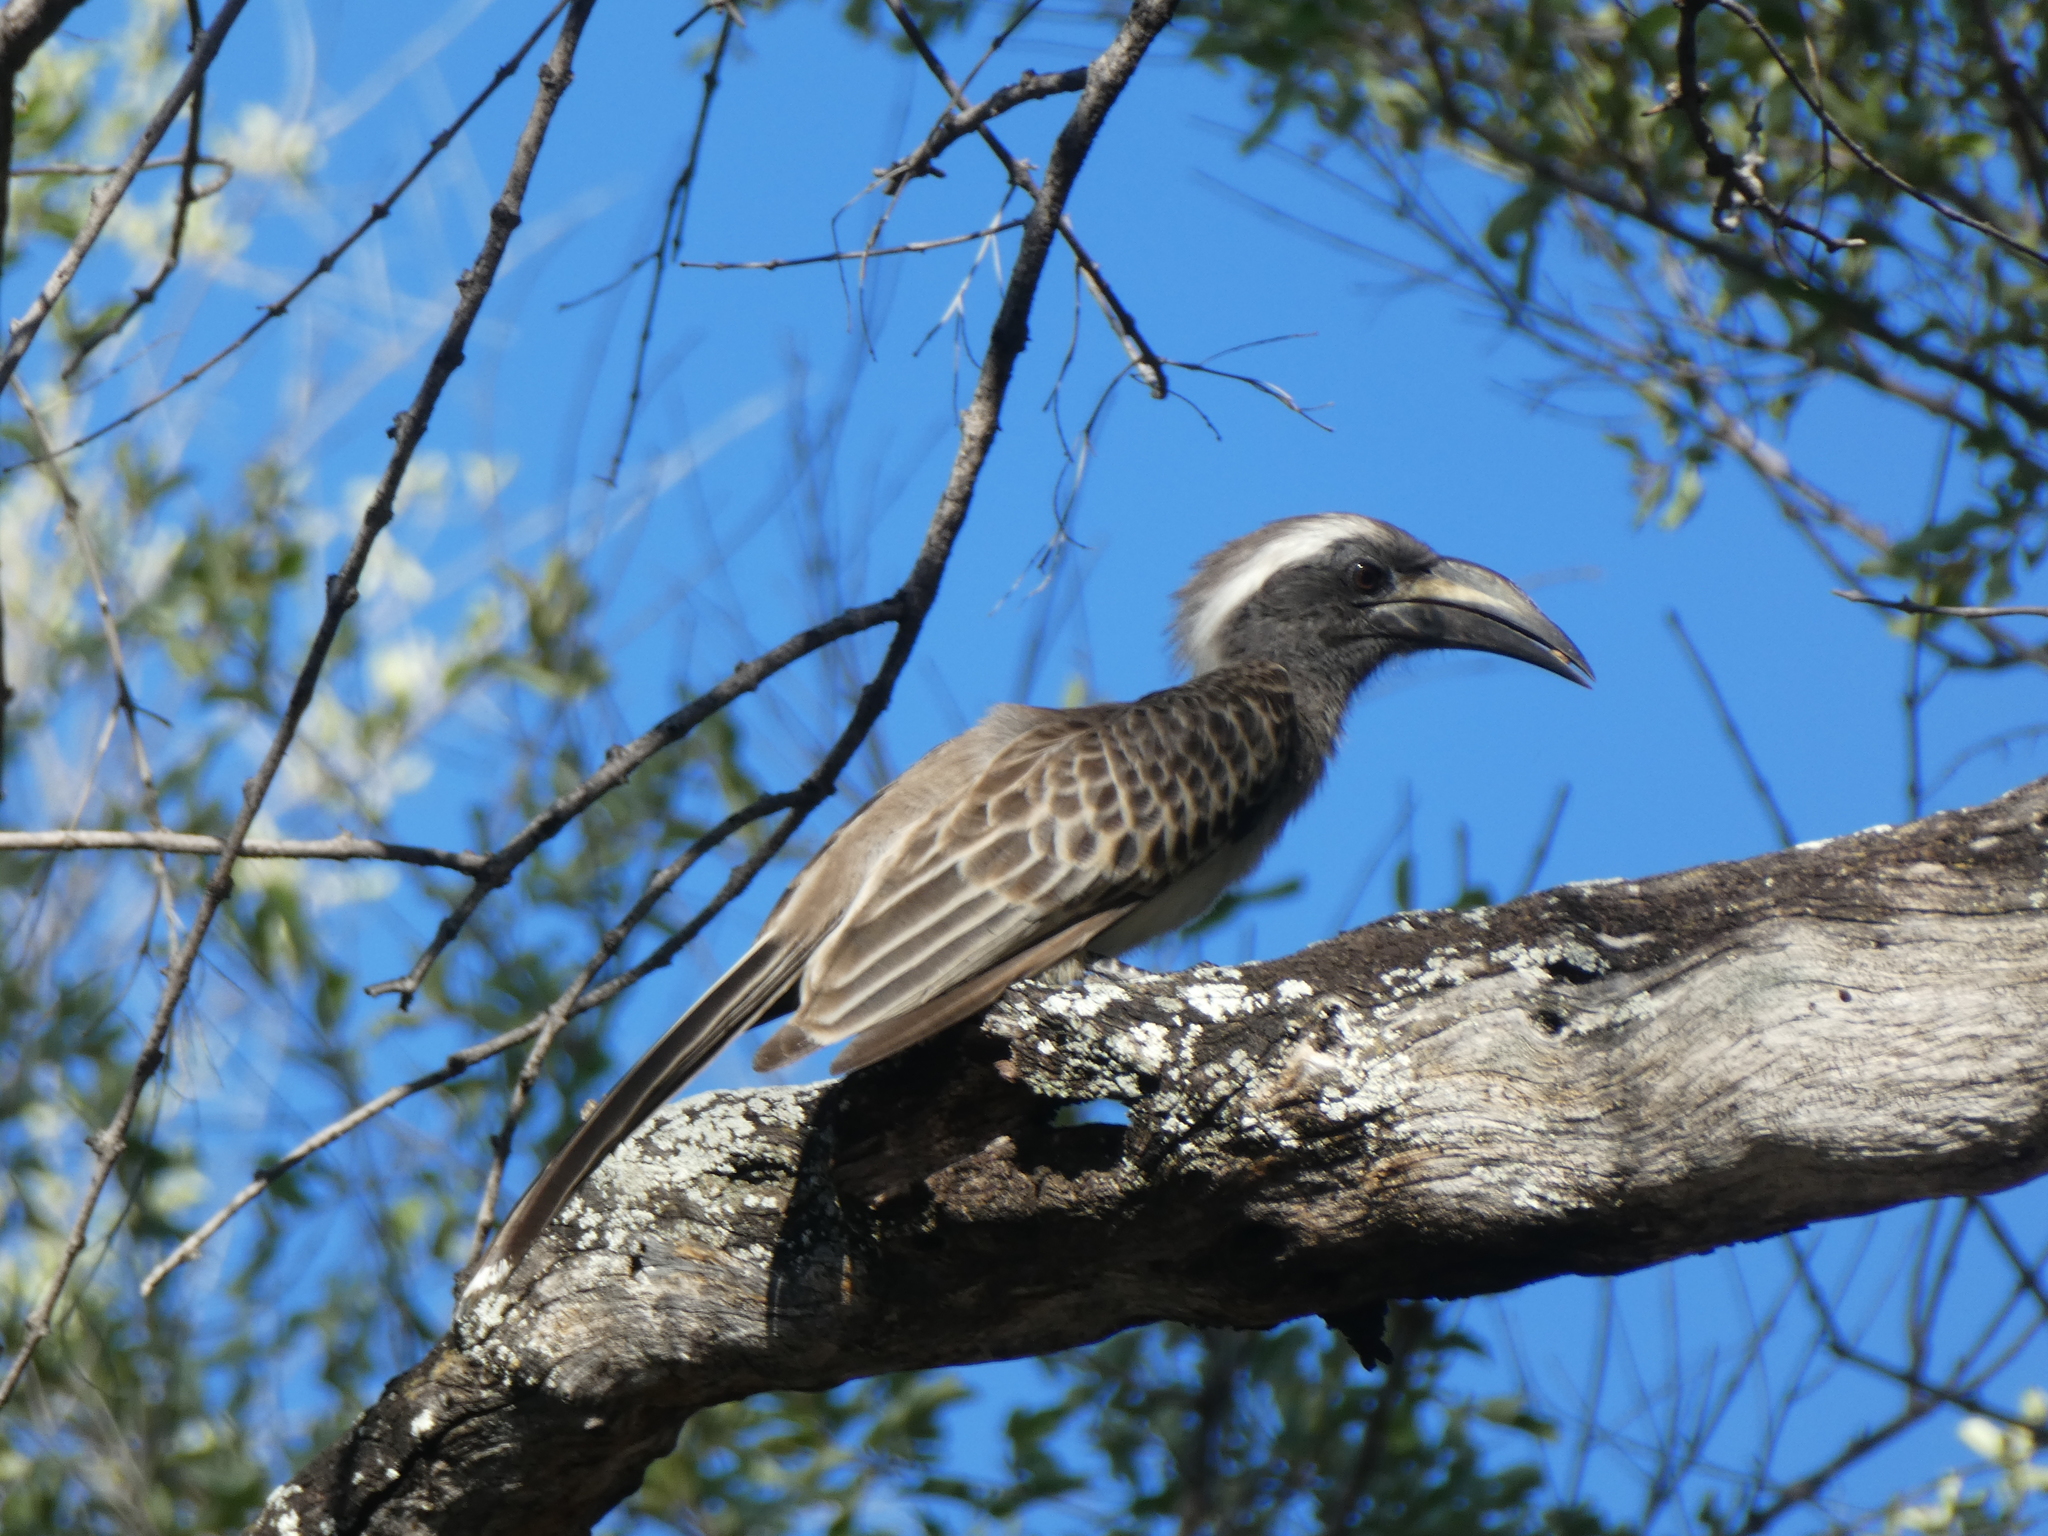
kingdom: Animalia
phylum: Chordata
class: Aves
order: Bucerotiformes
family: Bucerotidae
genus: Lophoceros
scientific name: Lophoceros nasutus
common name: African grey hornbill
